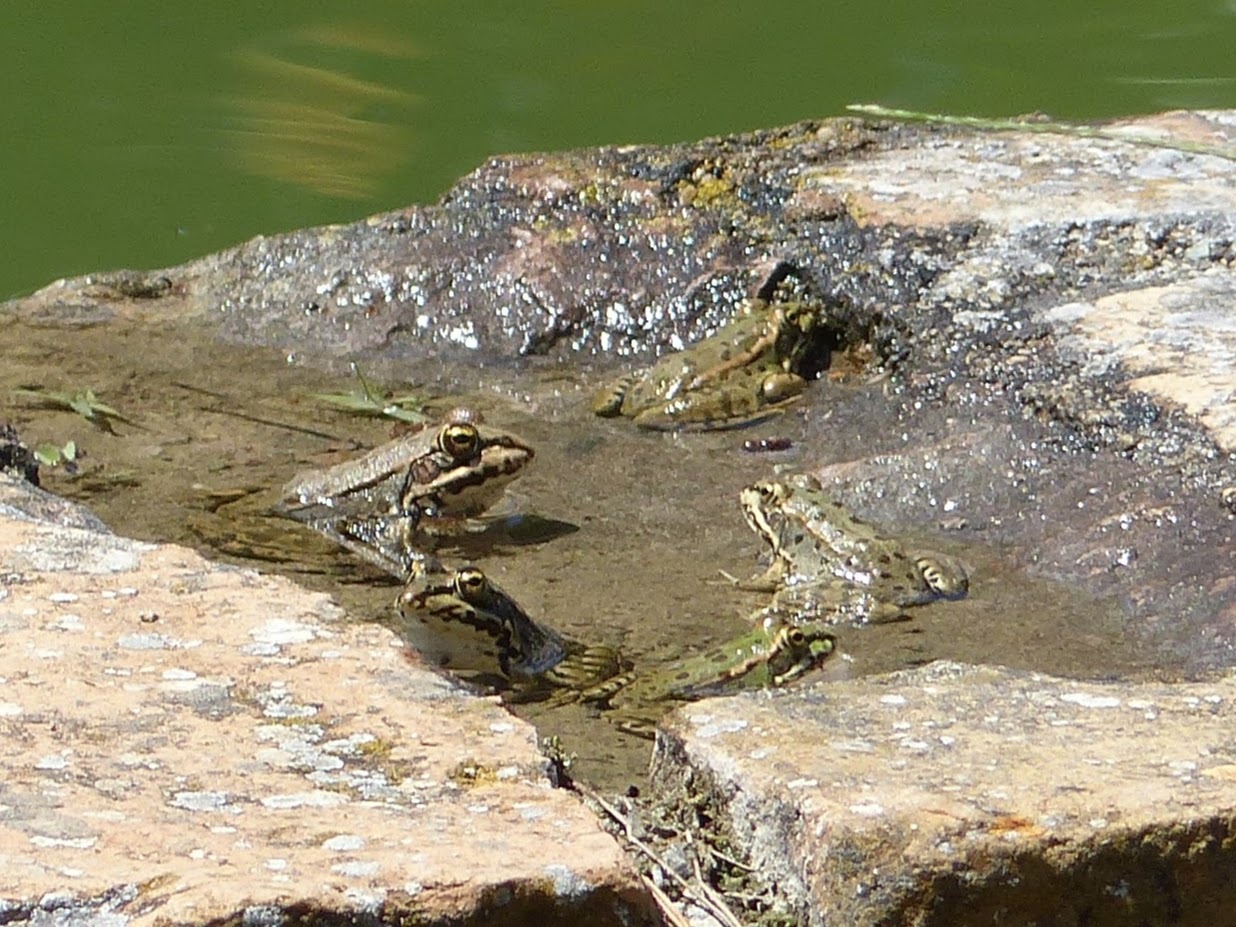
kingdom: Animalia
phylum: Chordata
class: Amphibia
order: Anura
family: Ranidae
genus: Pelophylax
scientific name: Pelophylax perezi
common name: Perez's frog
